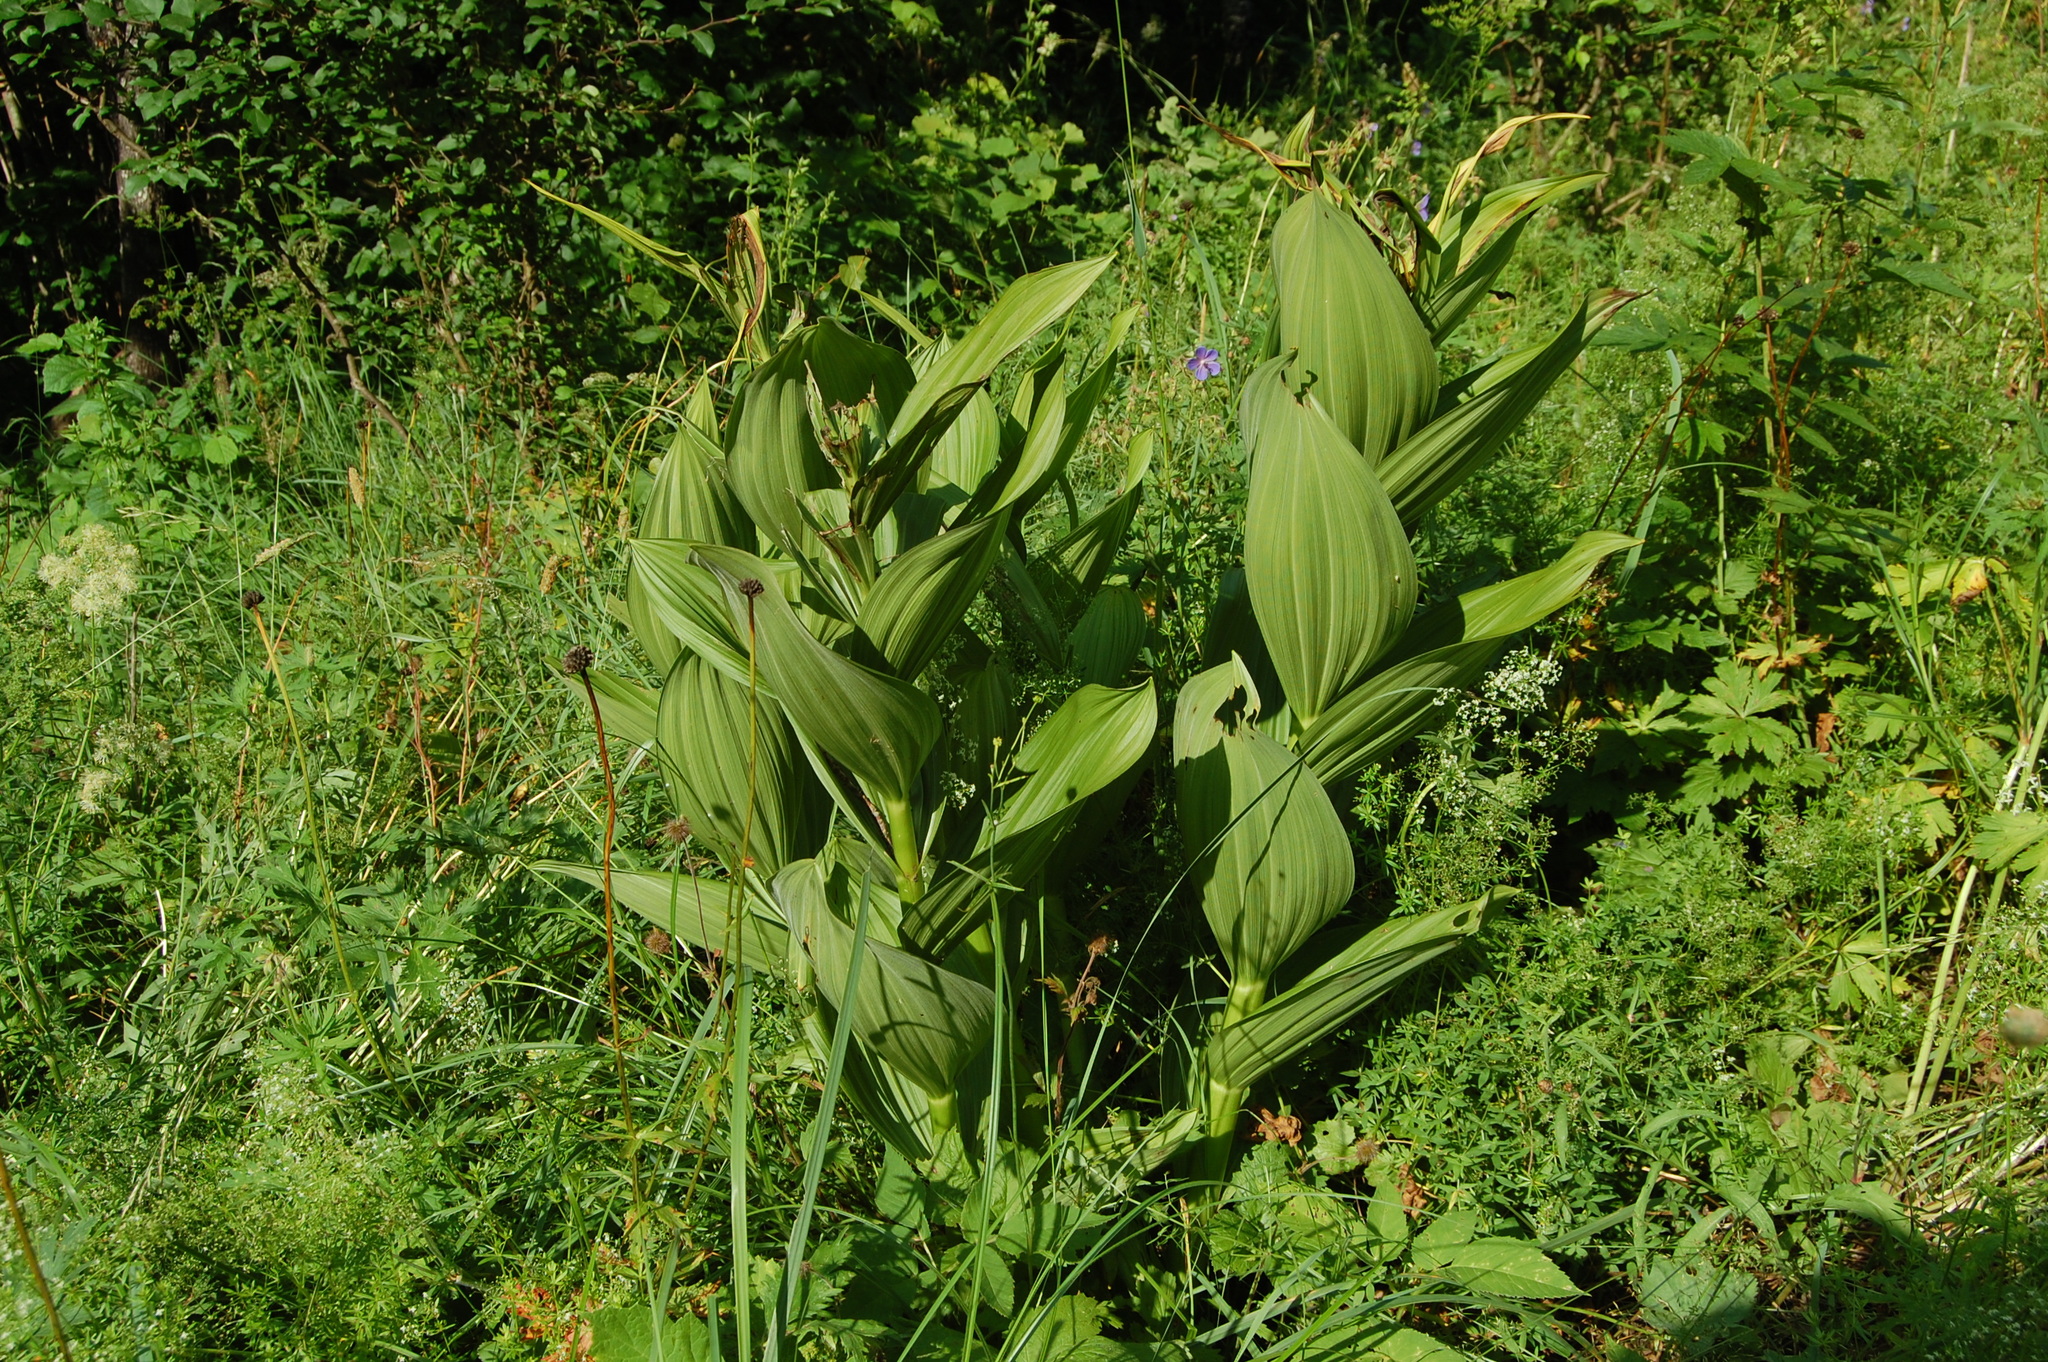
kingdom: Plantae
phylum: Tracheophyta
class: Liliopsida
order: Liliales
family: Melanthiaceae
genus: Veratrum
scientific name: Veratrum lobelianum
